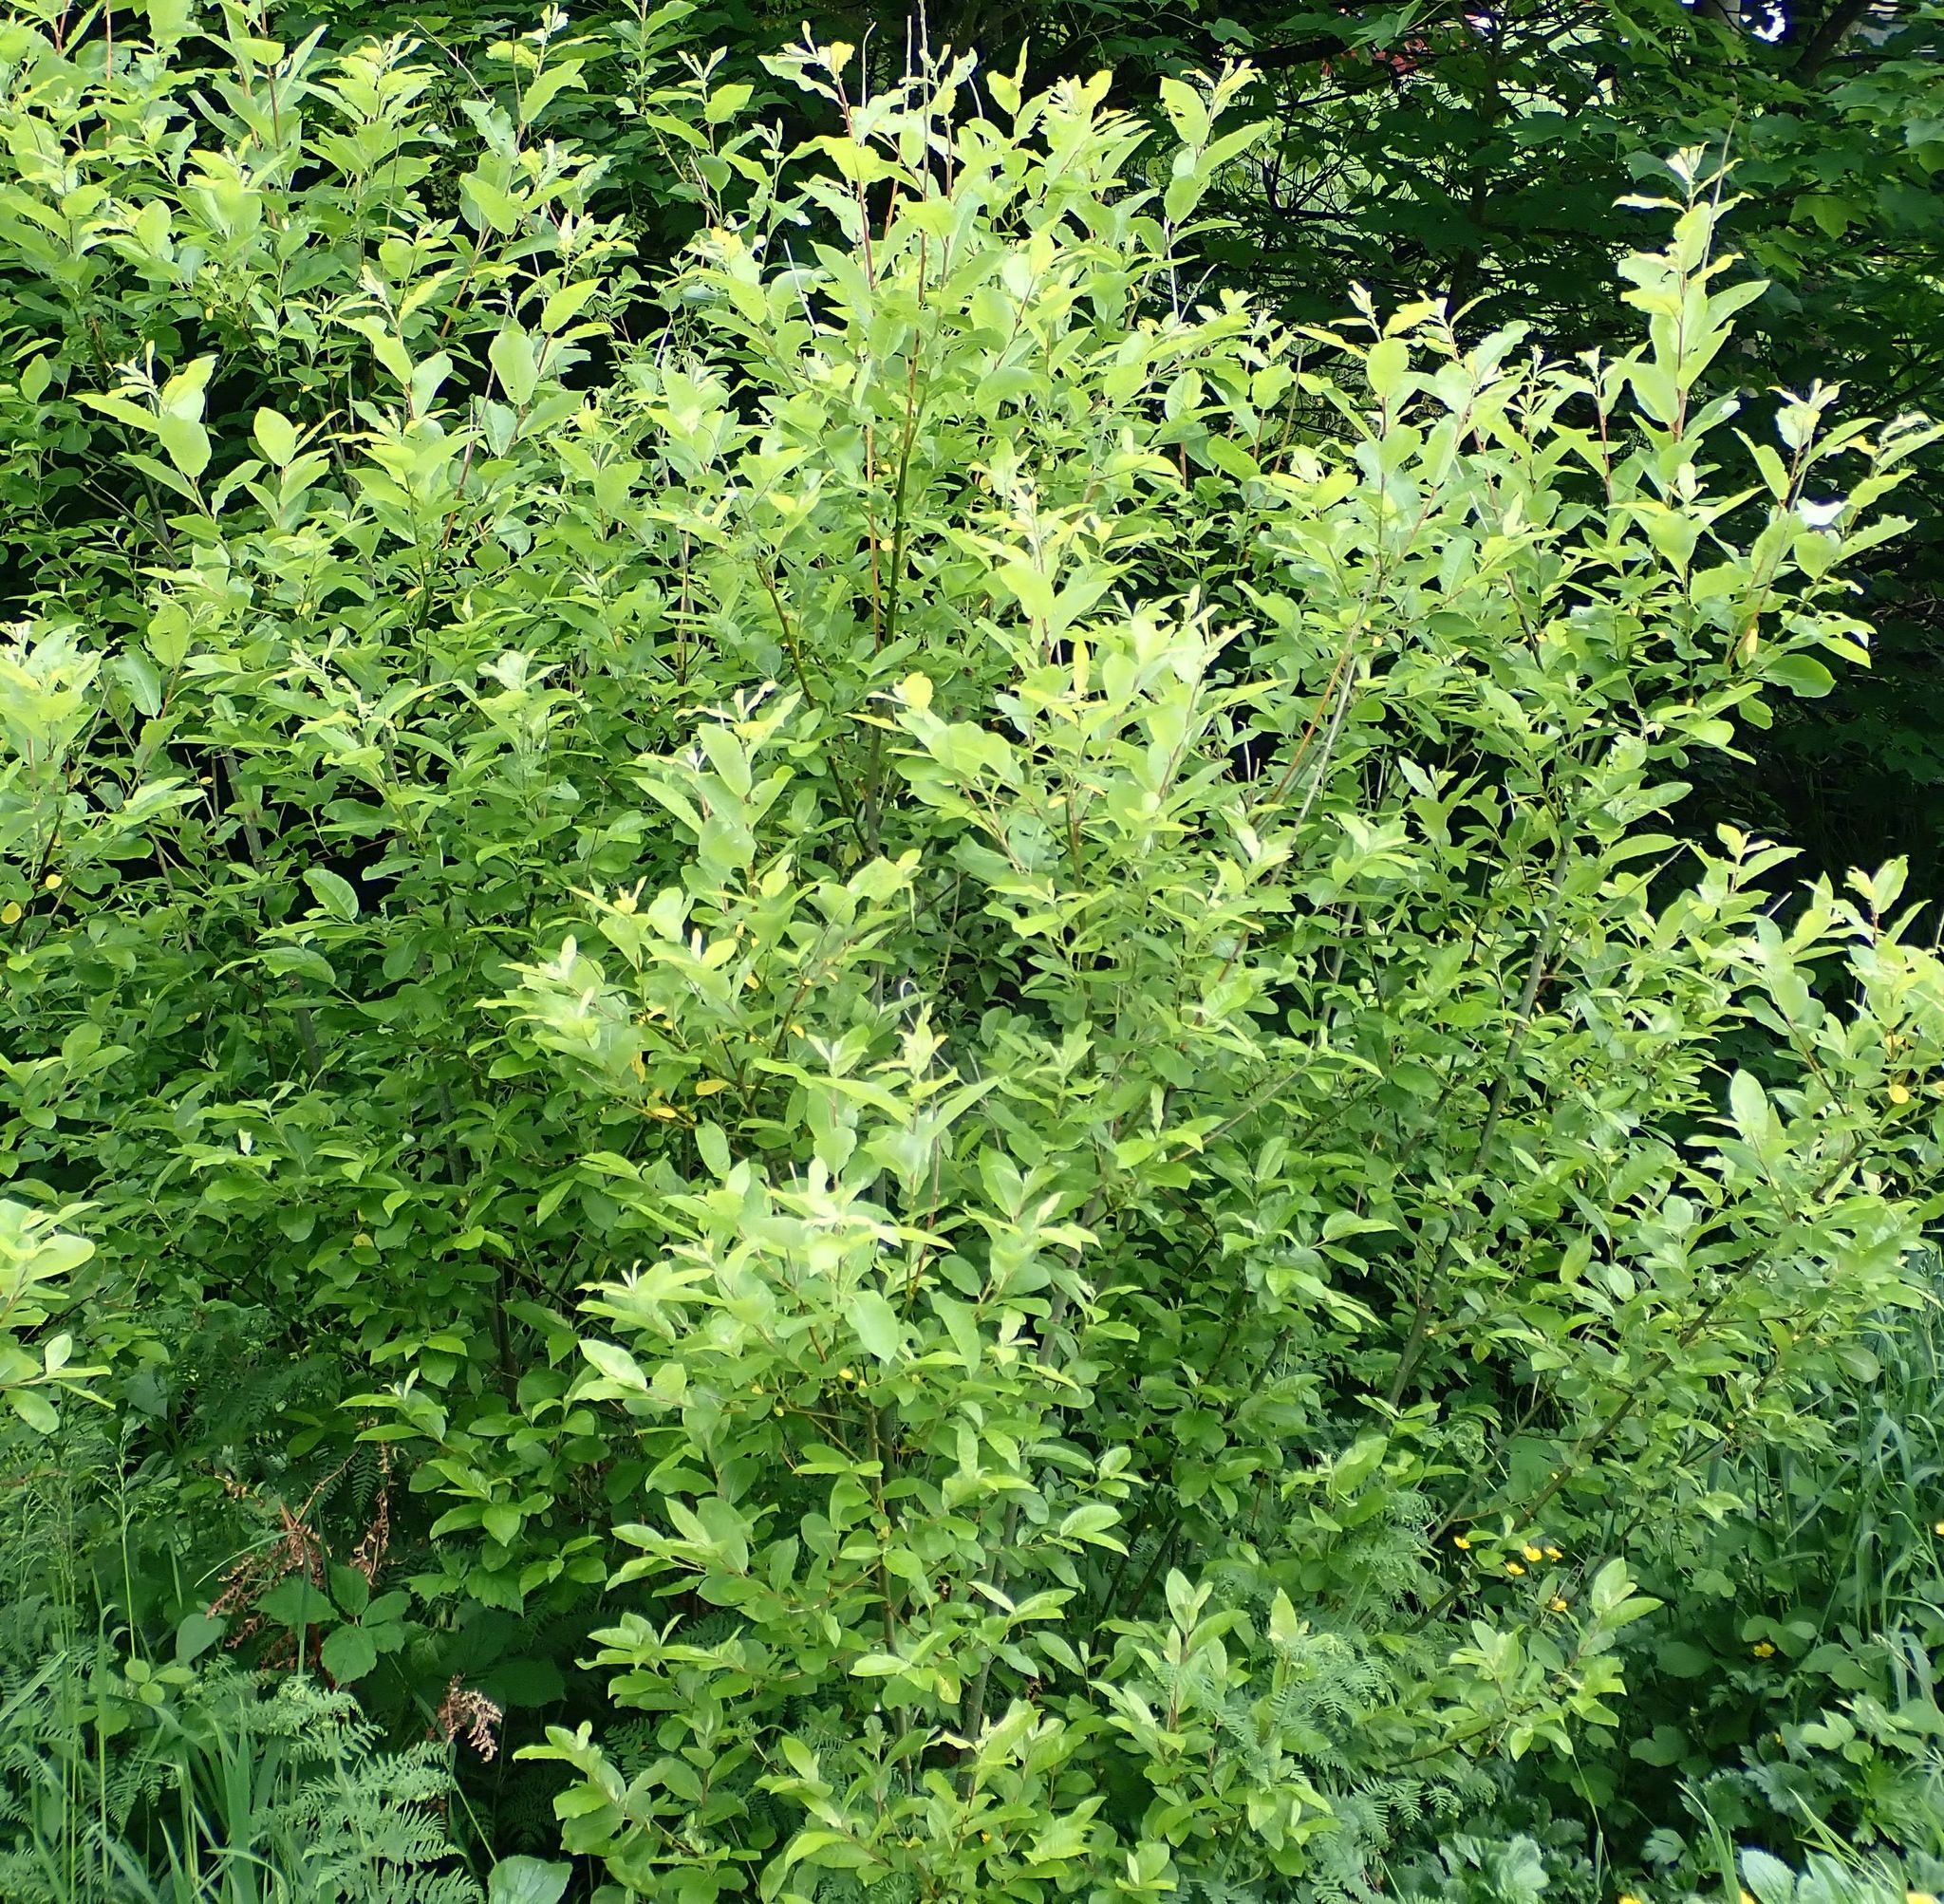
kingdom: Plantae
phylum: Tracheophyta
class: Magnoliopsida
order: Malpighiales
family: Salicaceae
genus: Salix
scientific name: Salix cinerea
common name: Common sallow
